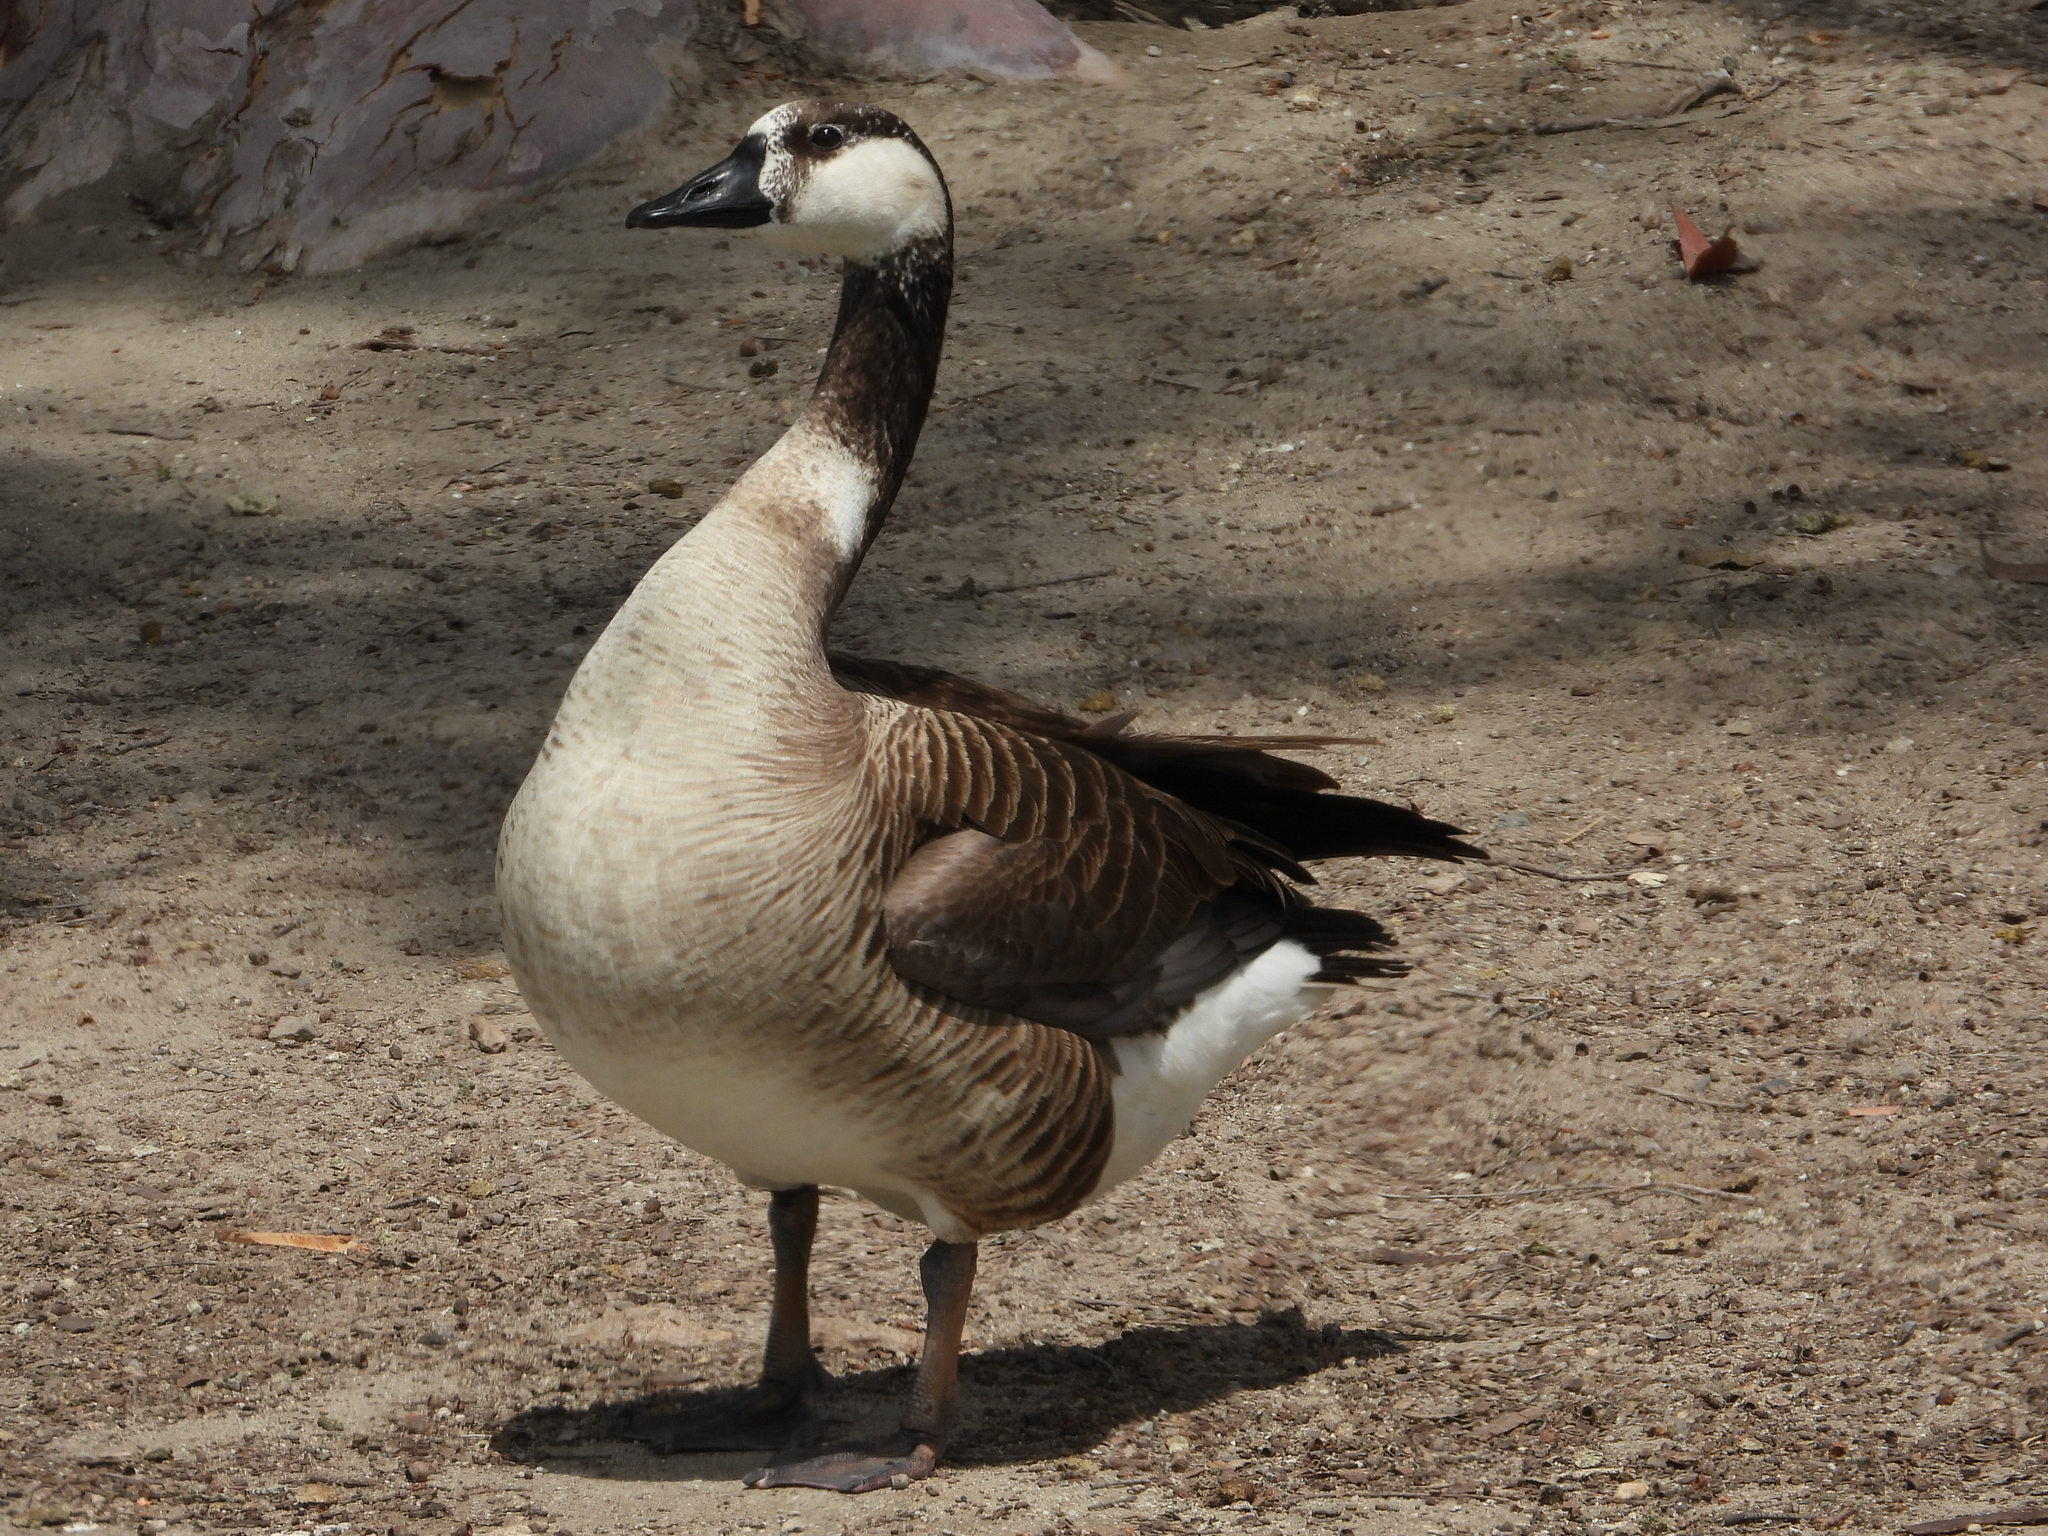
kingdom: Animalia
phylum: Chordata
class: Aves
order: Anseriformes
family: Anatidae
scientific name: Anatidae
